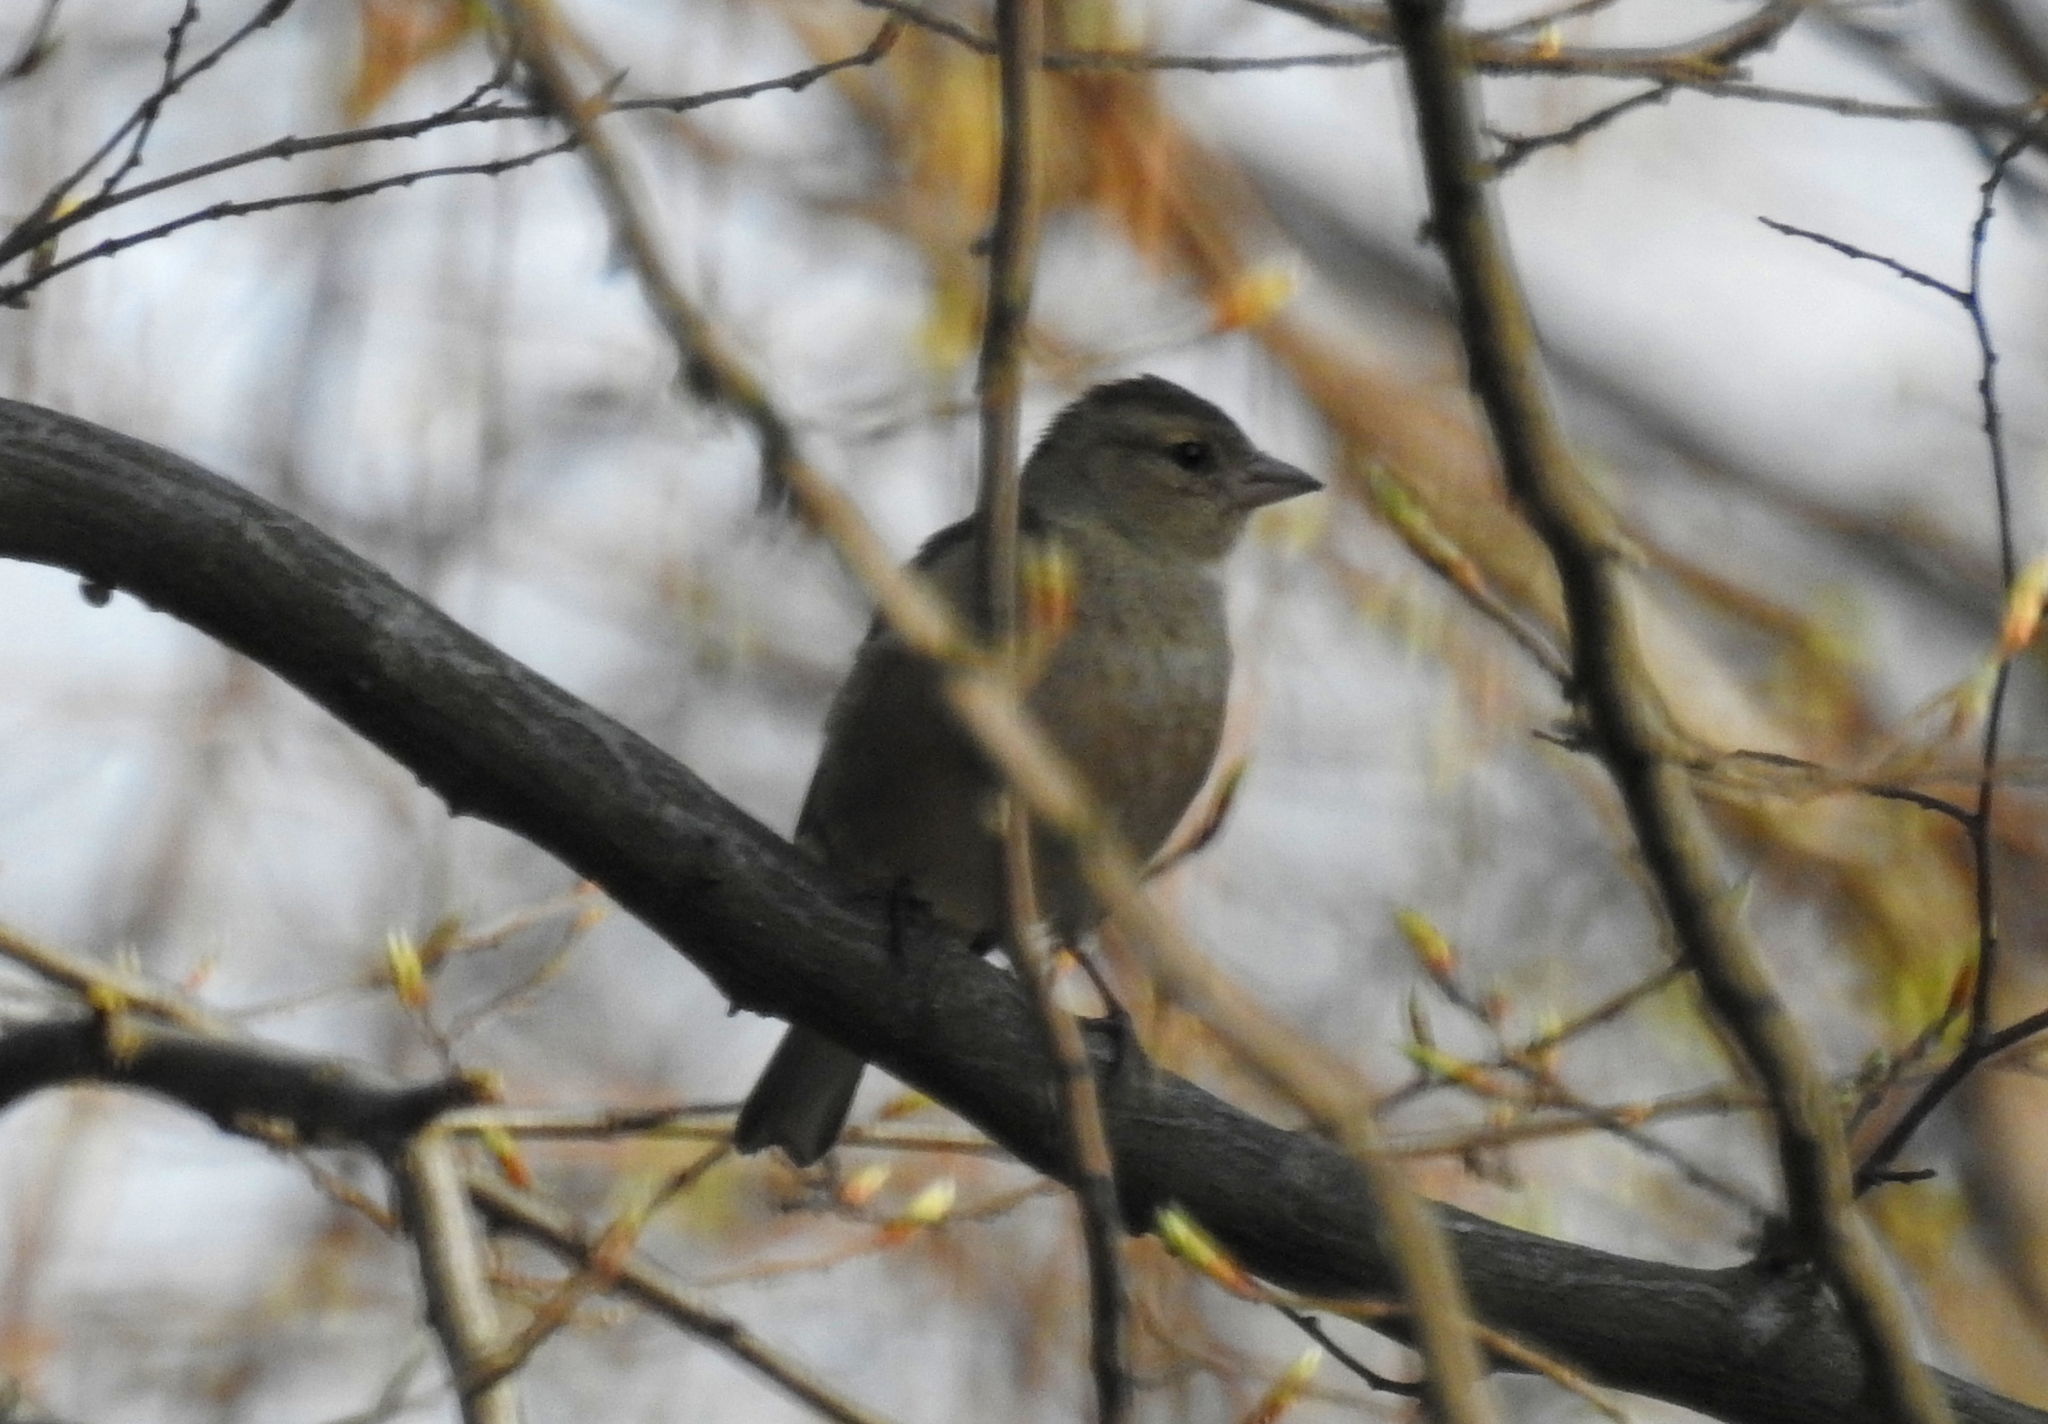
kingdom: Animalia
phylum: Chordata
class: Aves
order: Passeriformes
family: Fringillidae
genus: Fringilla
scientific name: Fringilla coelebs
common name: Common chaffinch
